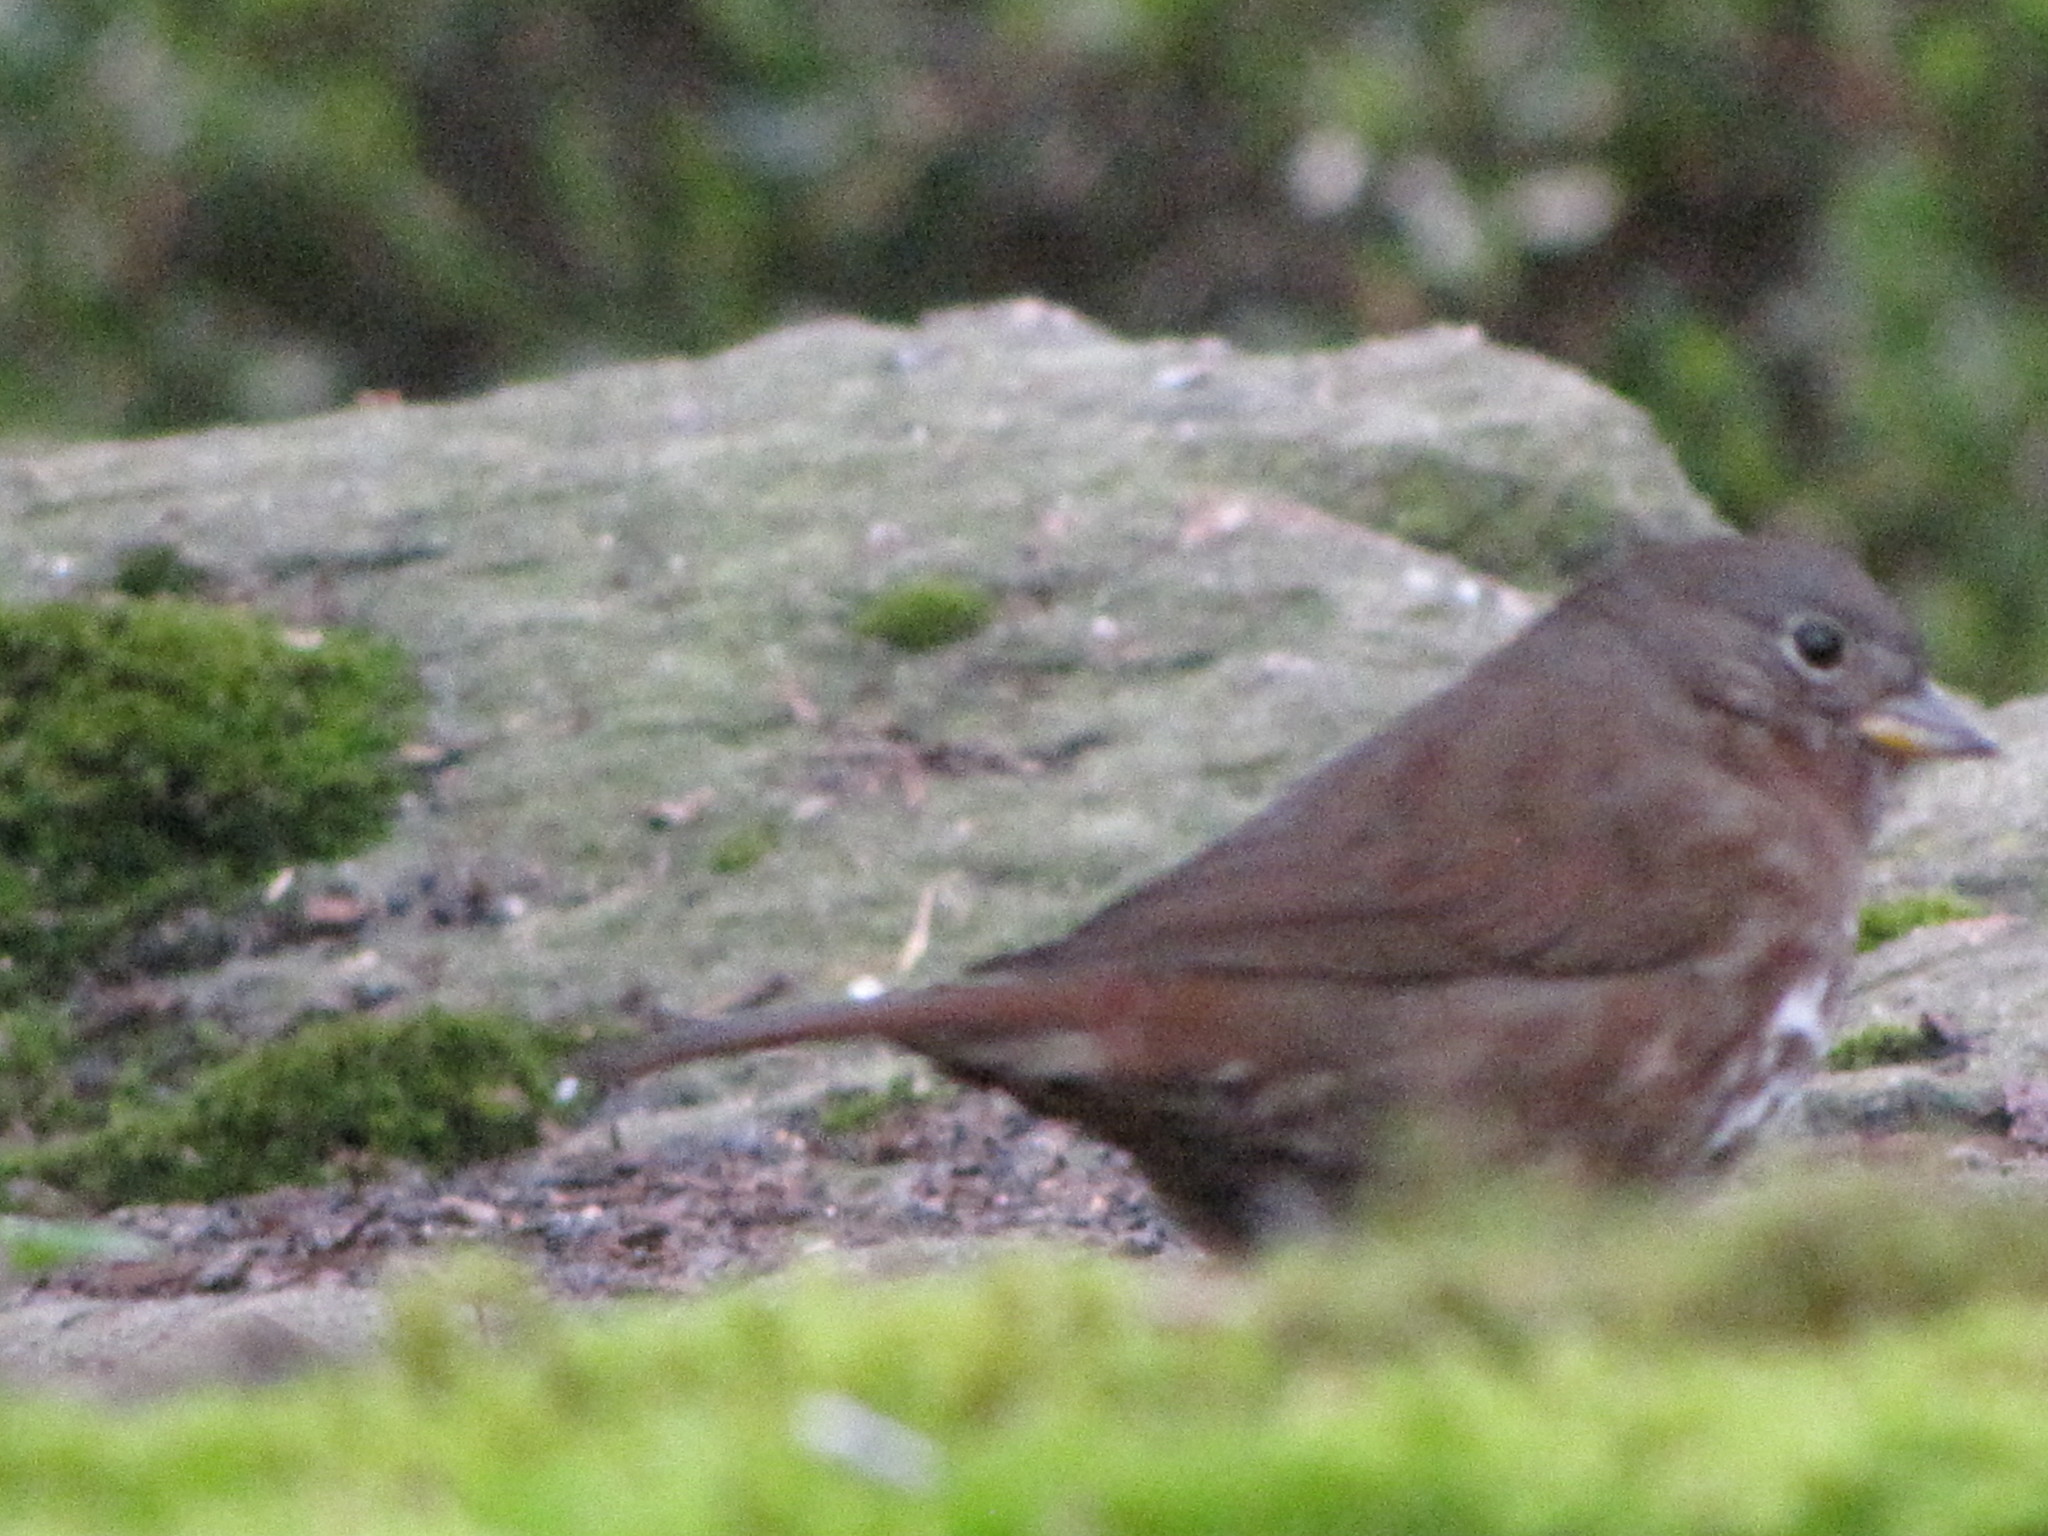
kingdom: Animalia
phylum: Chordata
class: Aves
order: Passeriformes
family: Passerellidae
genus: Passerella
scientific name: Passerella iliaca
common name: Fox sparrow
